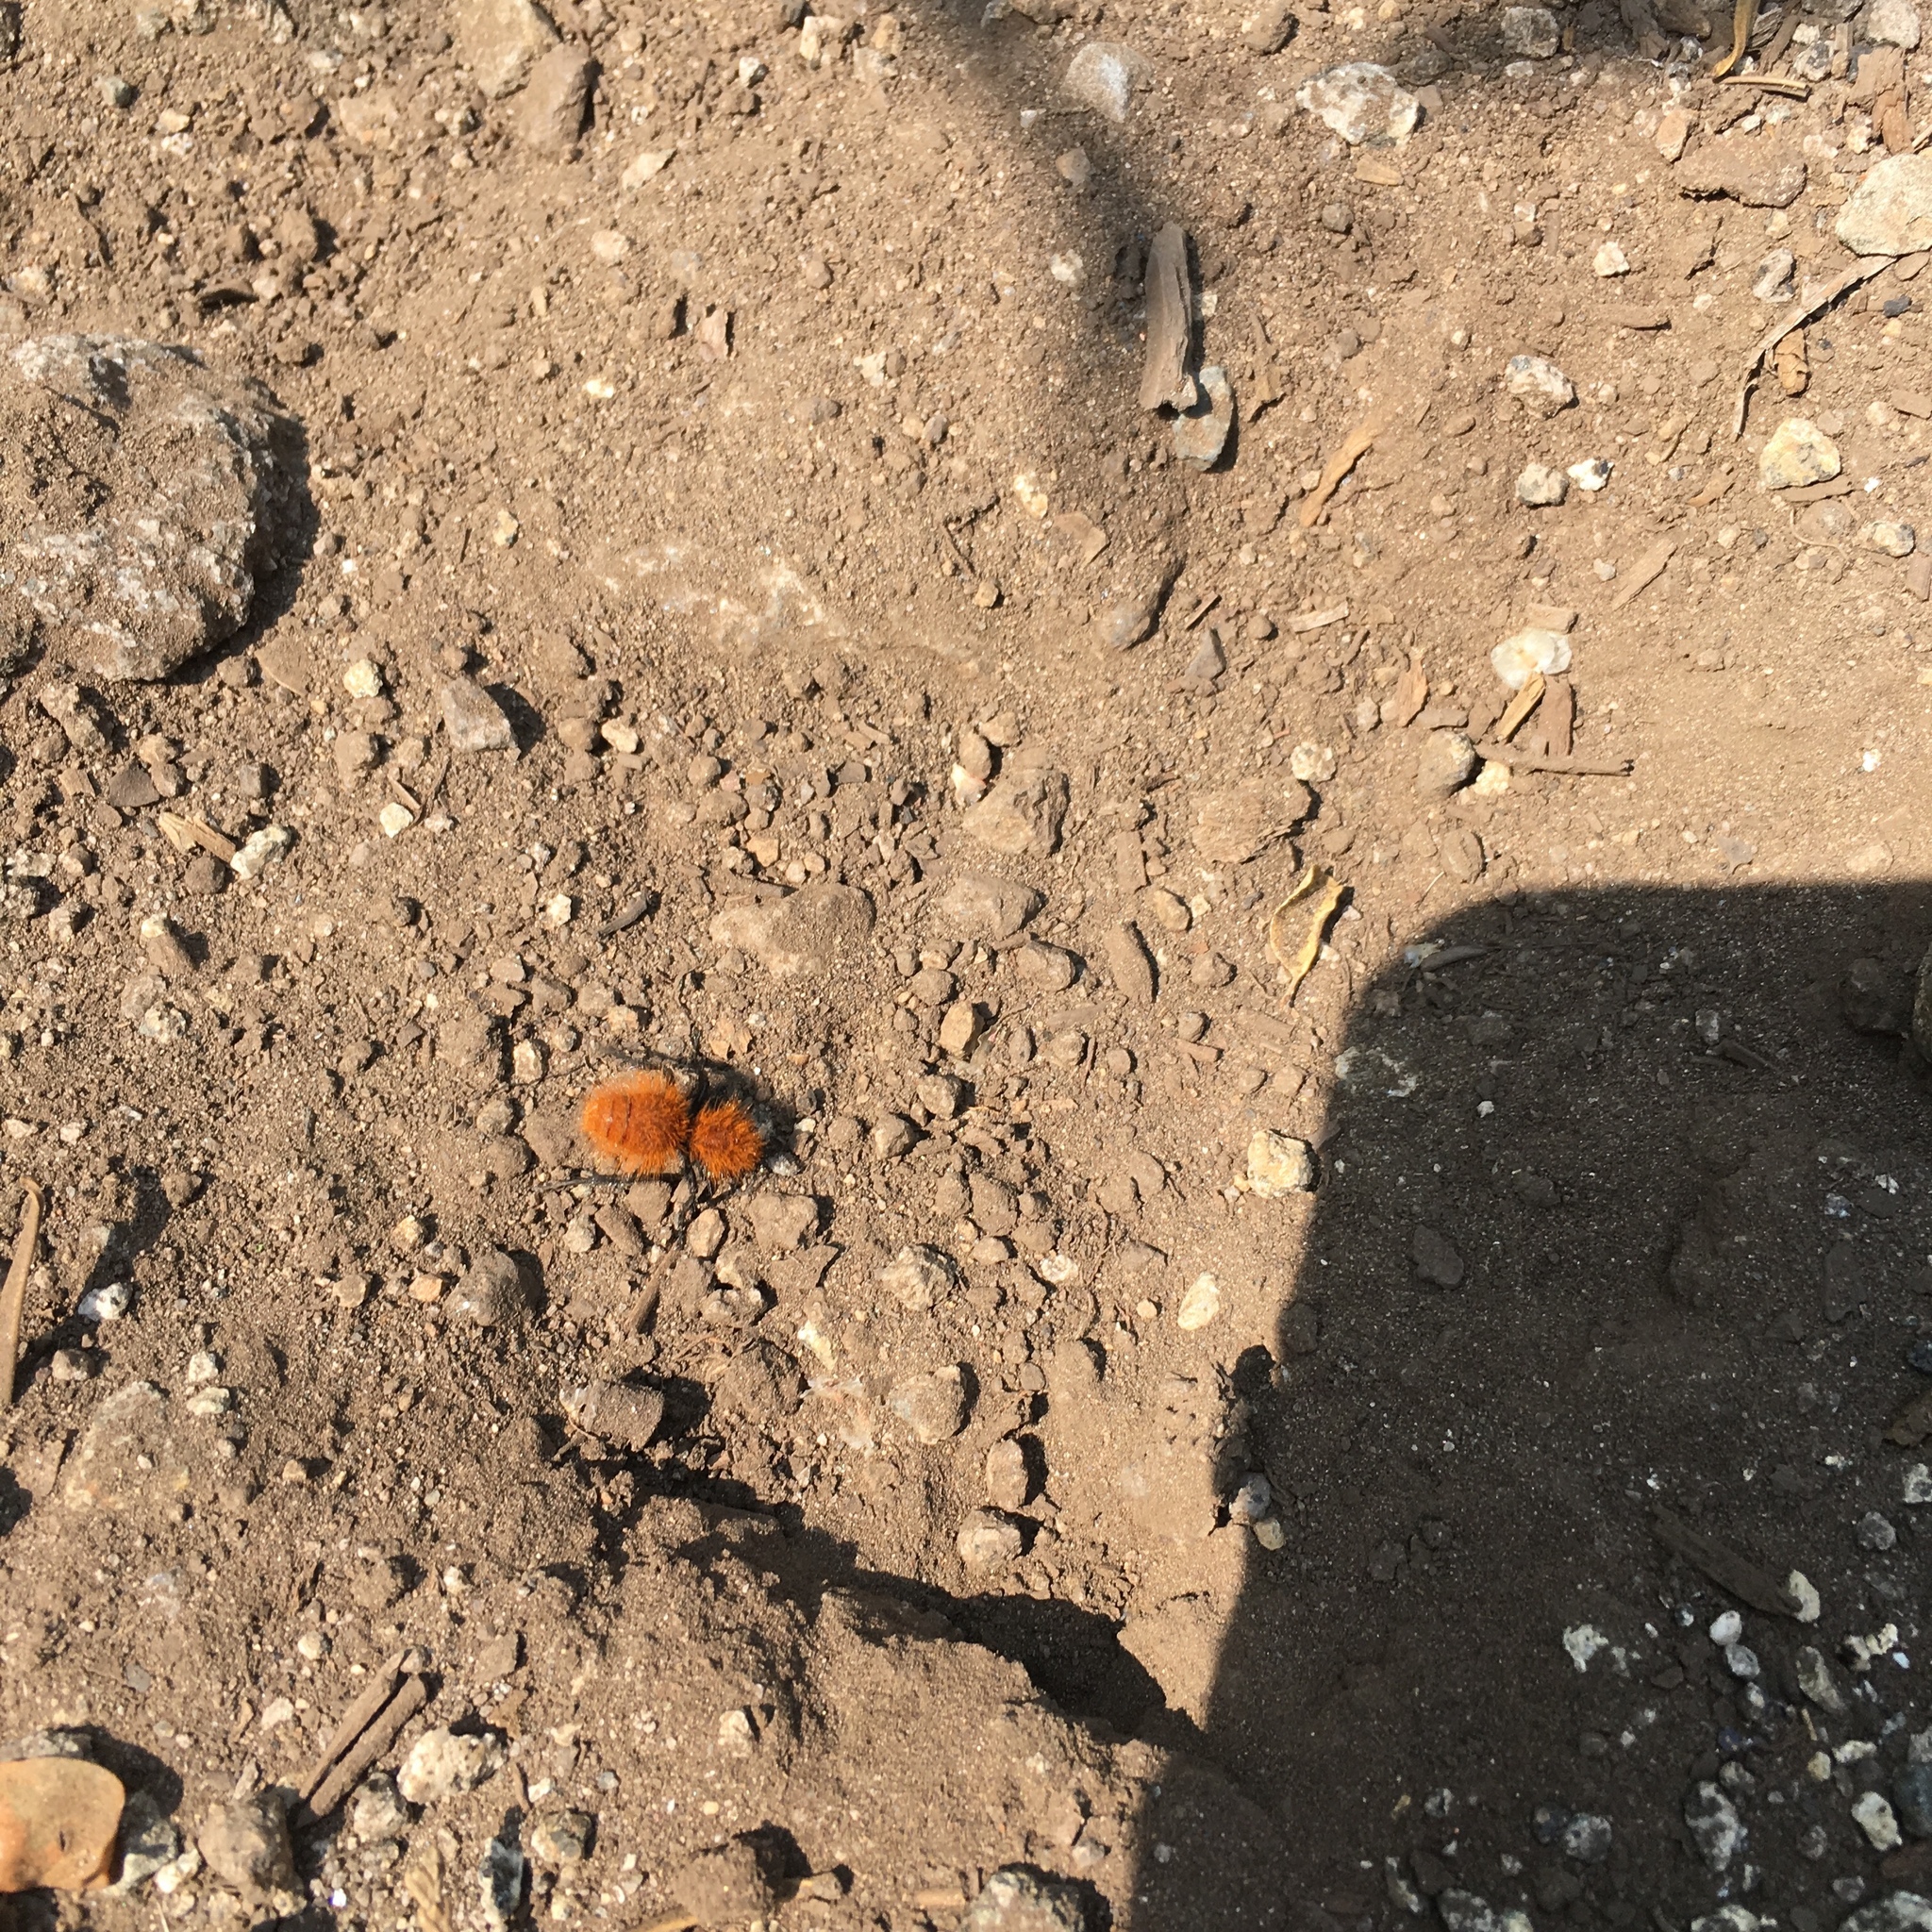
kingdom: Animalia
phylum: Arthropoda
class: Insecta
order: Hymenoptera
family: Mutillidae
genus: Dasymutilla
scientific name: Dasymutilla
